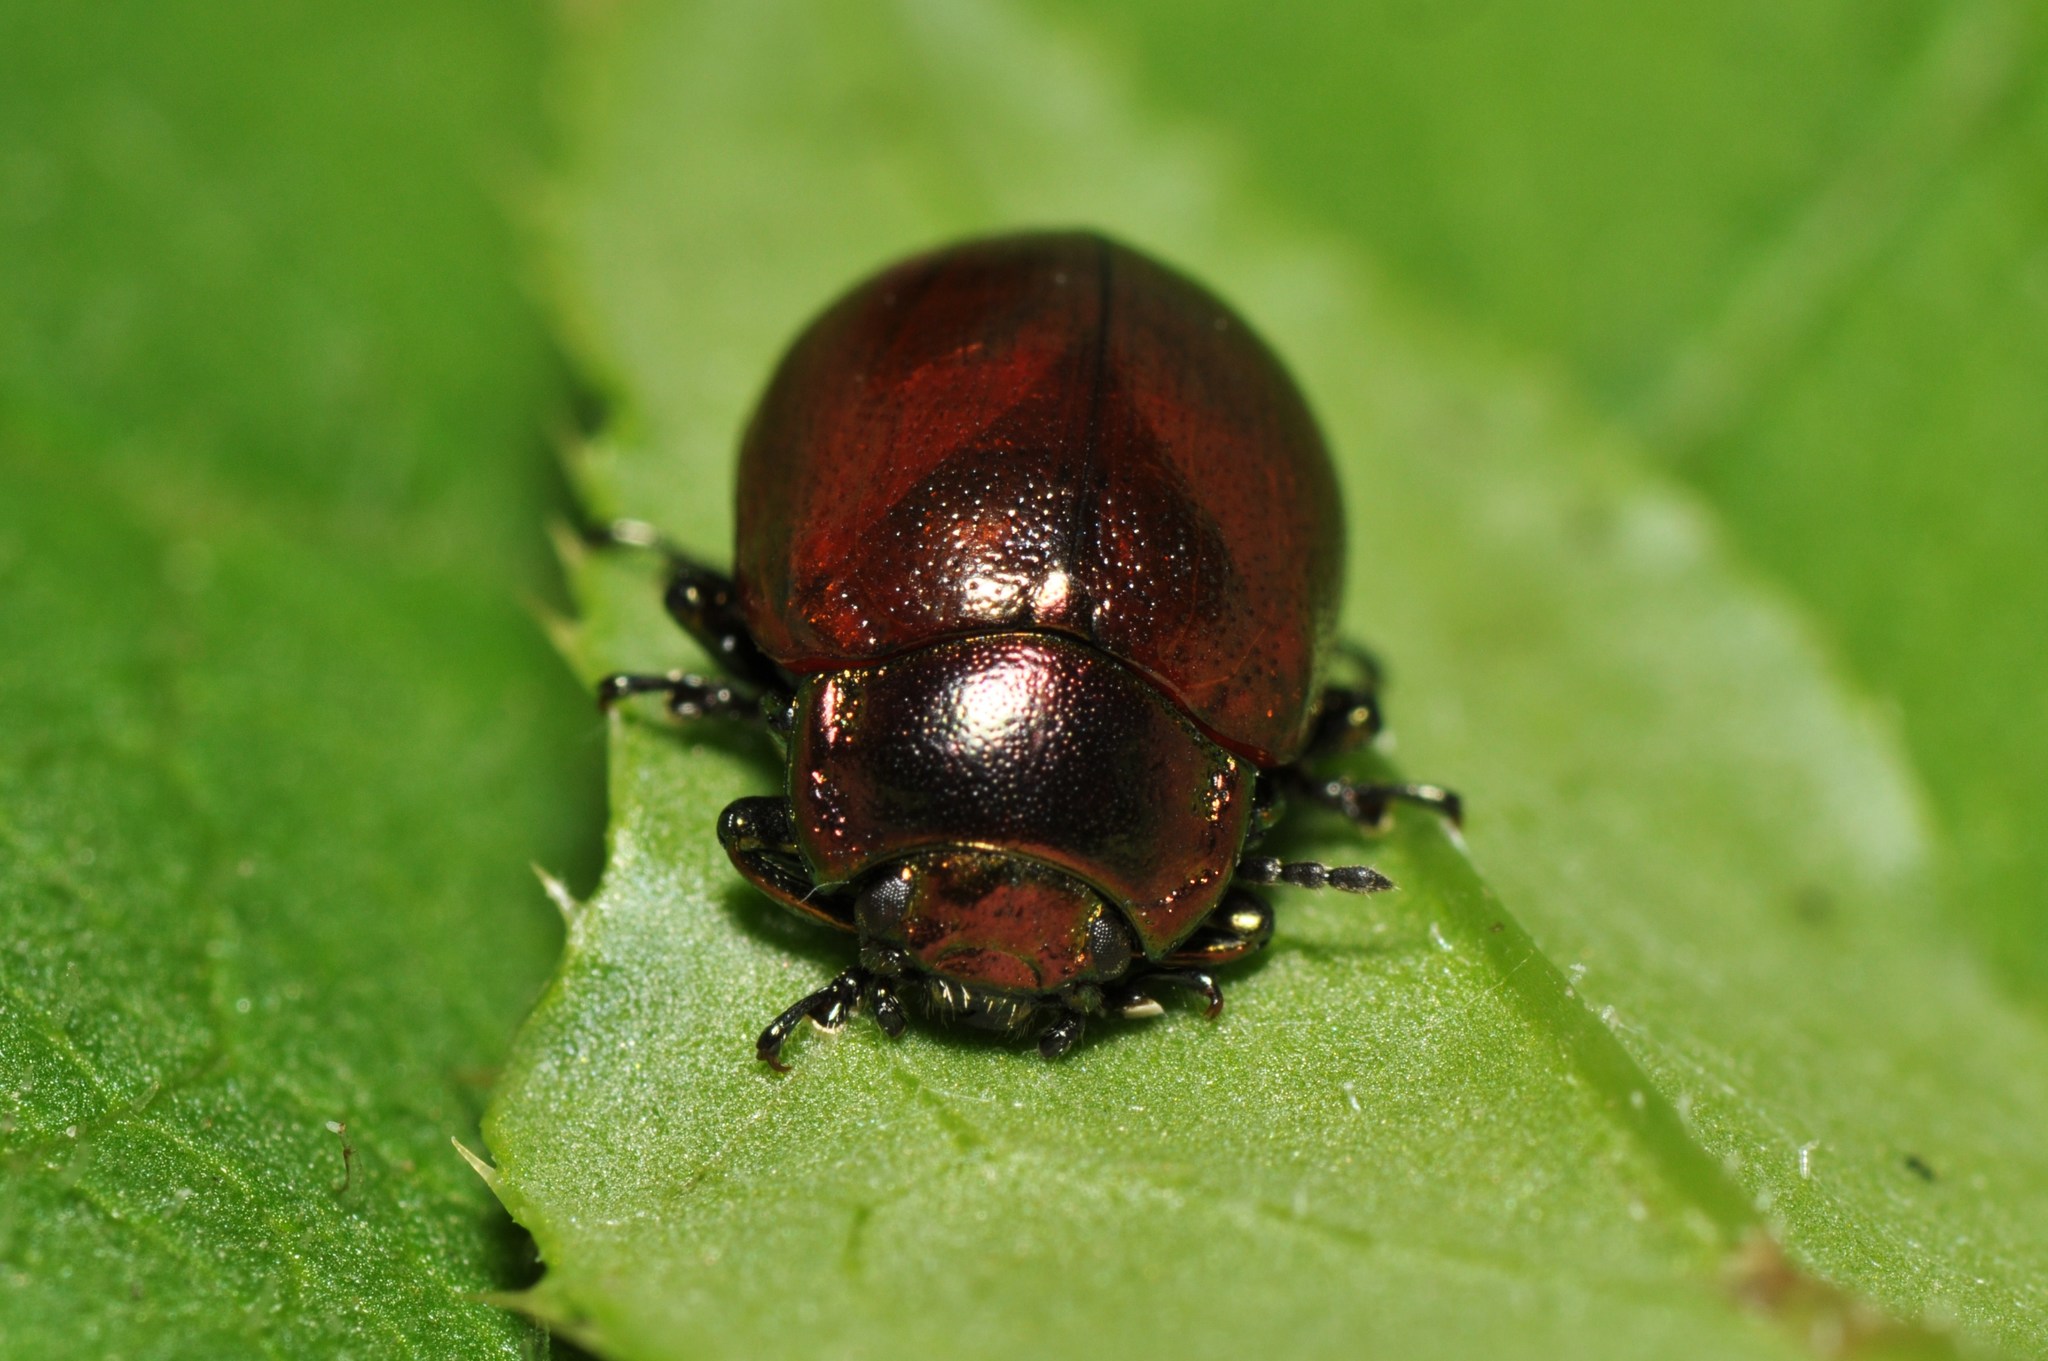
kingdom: Animalia
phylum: Arthropoda
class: Insecta
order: Coleoptera
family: Chrysomelidae
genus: Chrysomela
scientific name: Chrysomela polita
